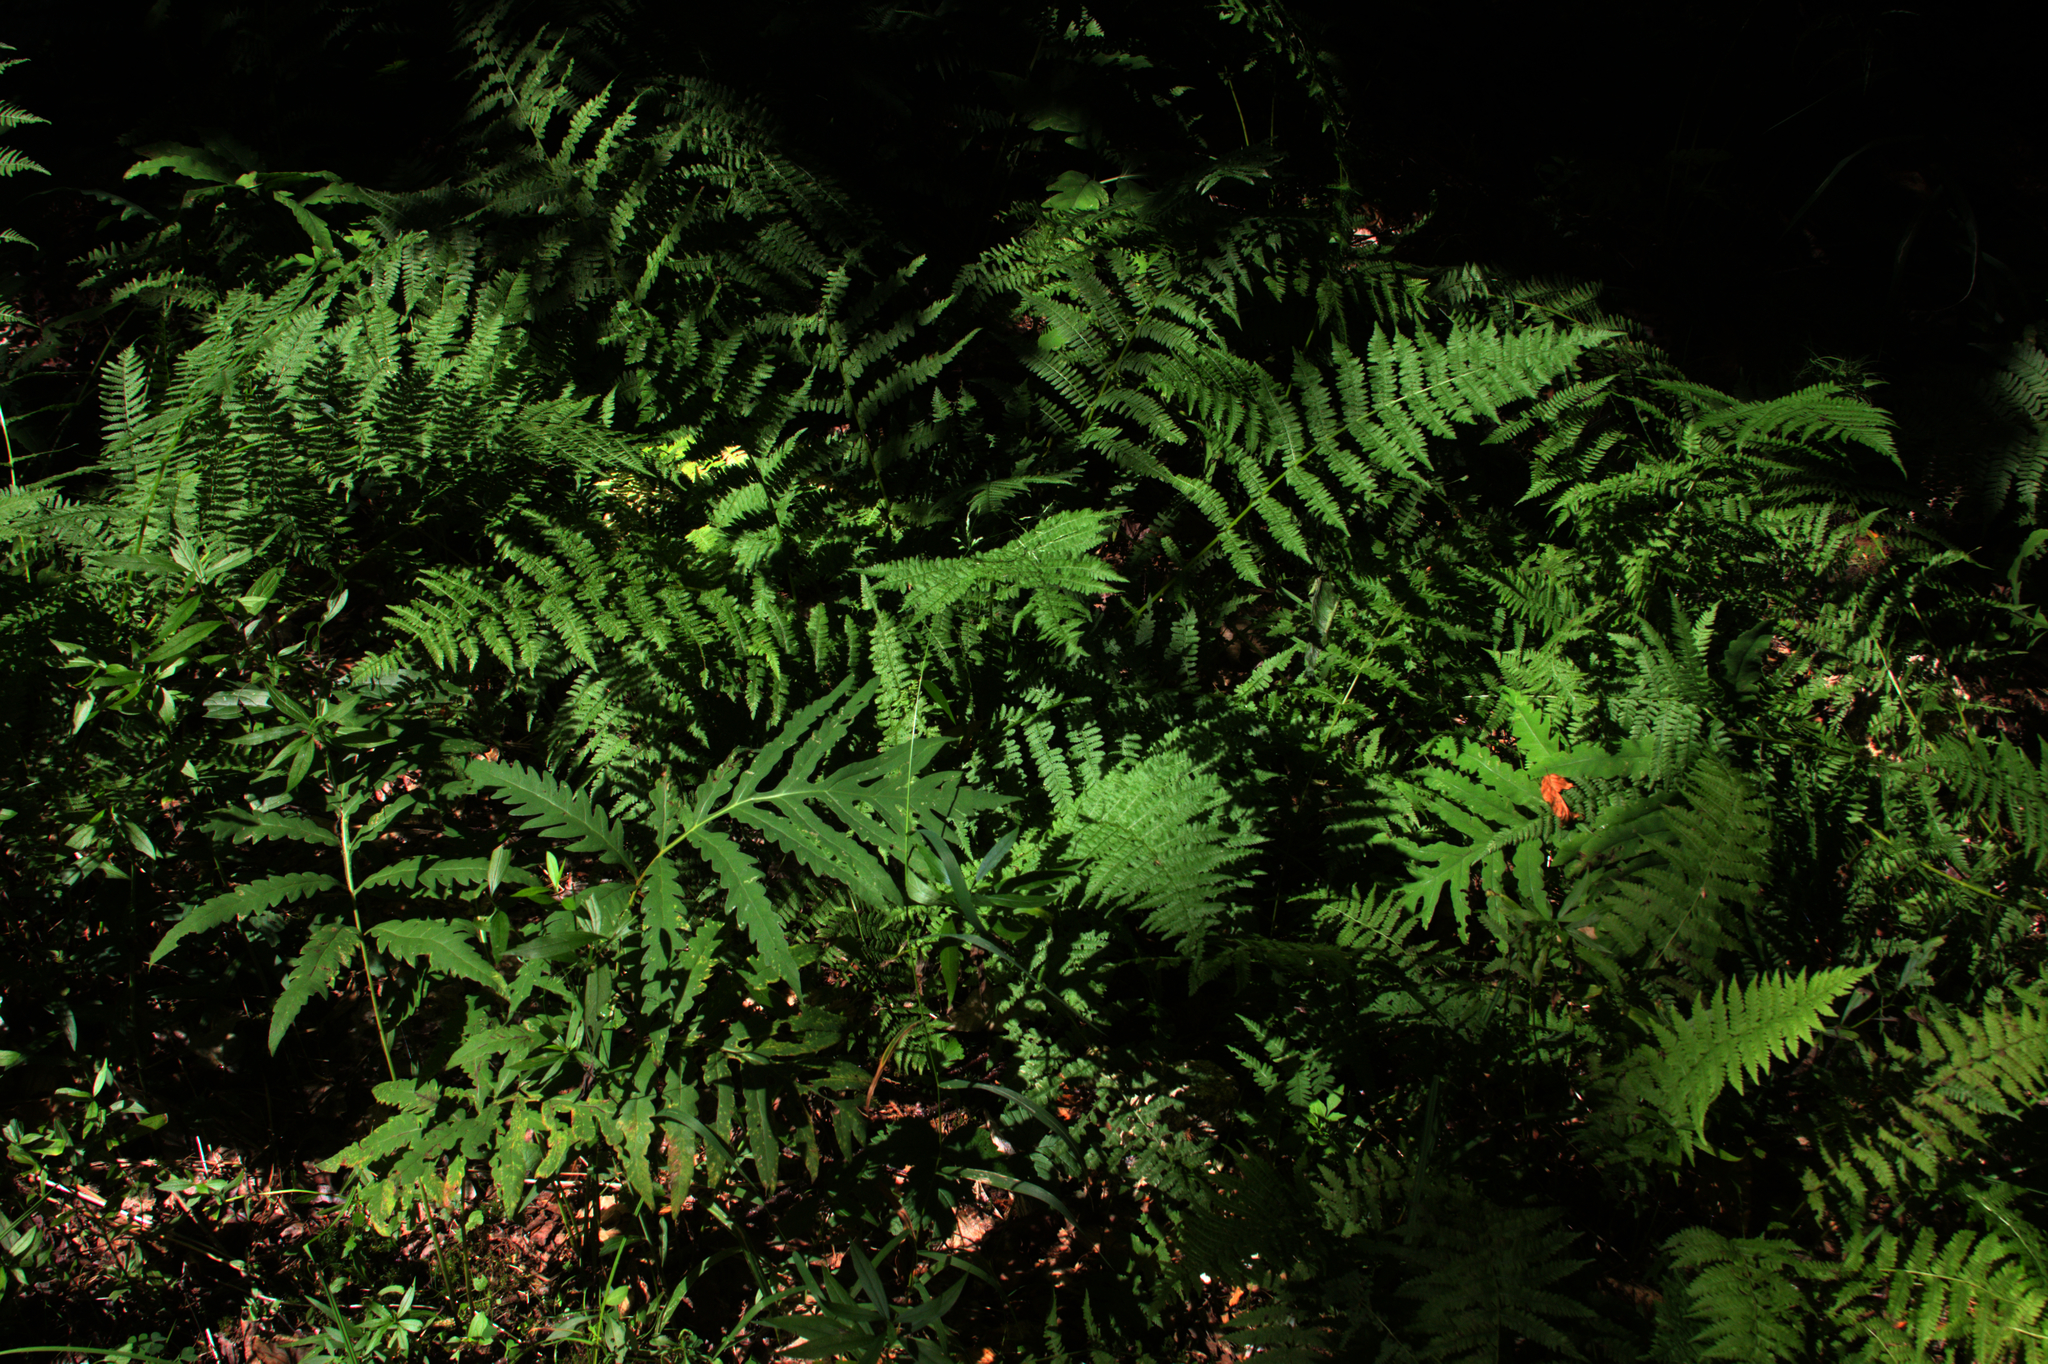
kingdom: Plantae
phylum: Tracheophyta
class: Polypodiopsida
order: Polypodiales
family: Onocleaceae
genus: Onoclea
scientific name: Onoclea sensibilis
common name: Sensitive fern
